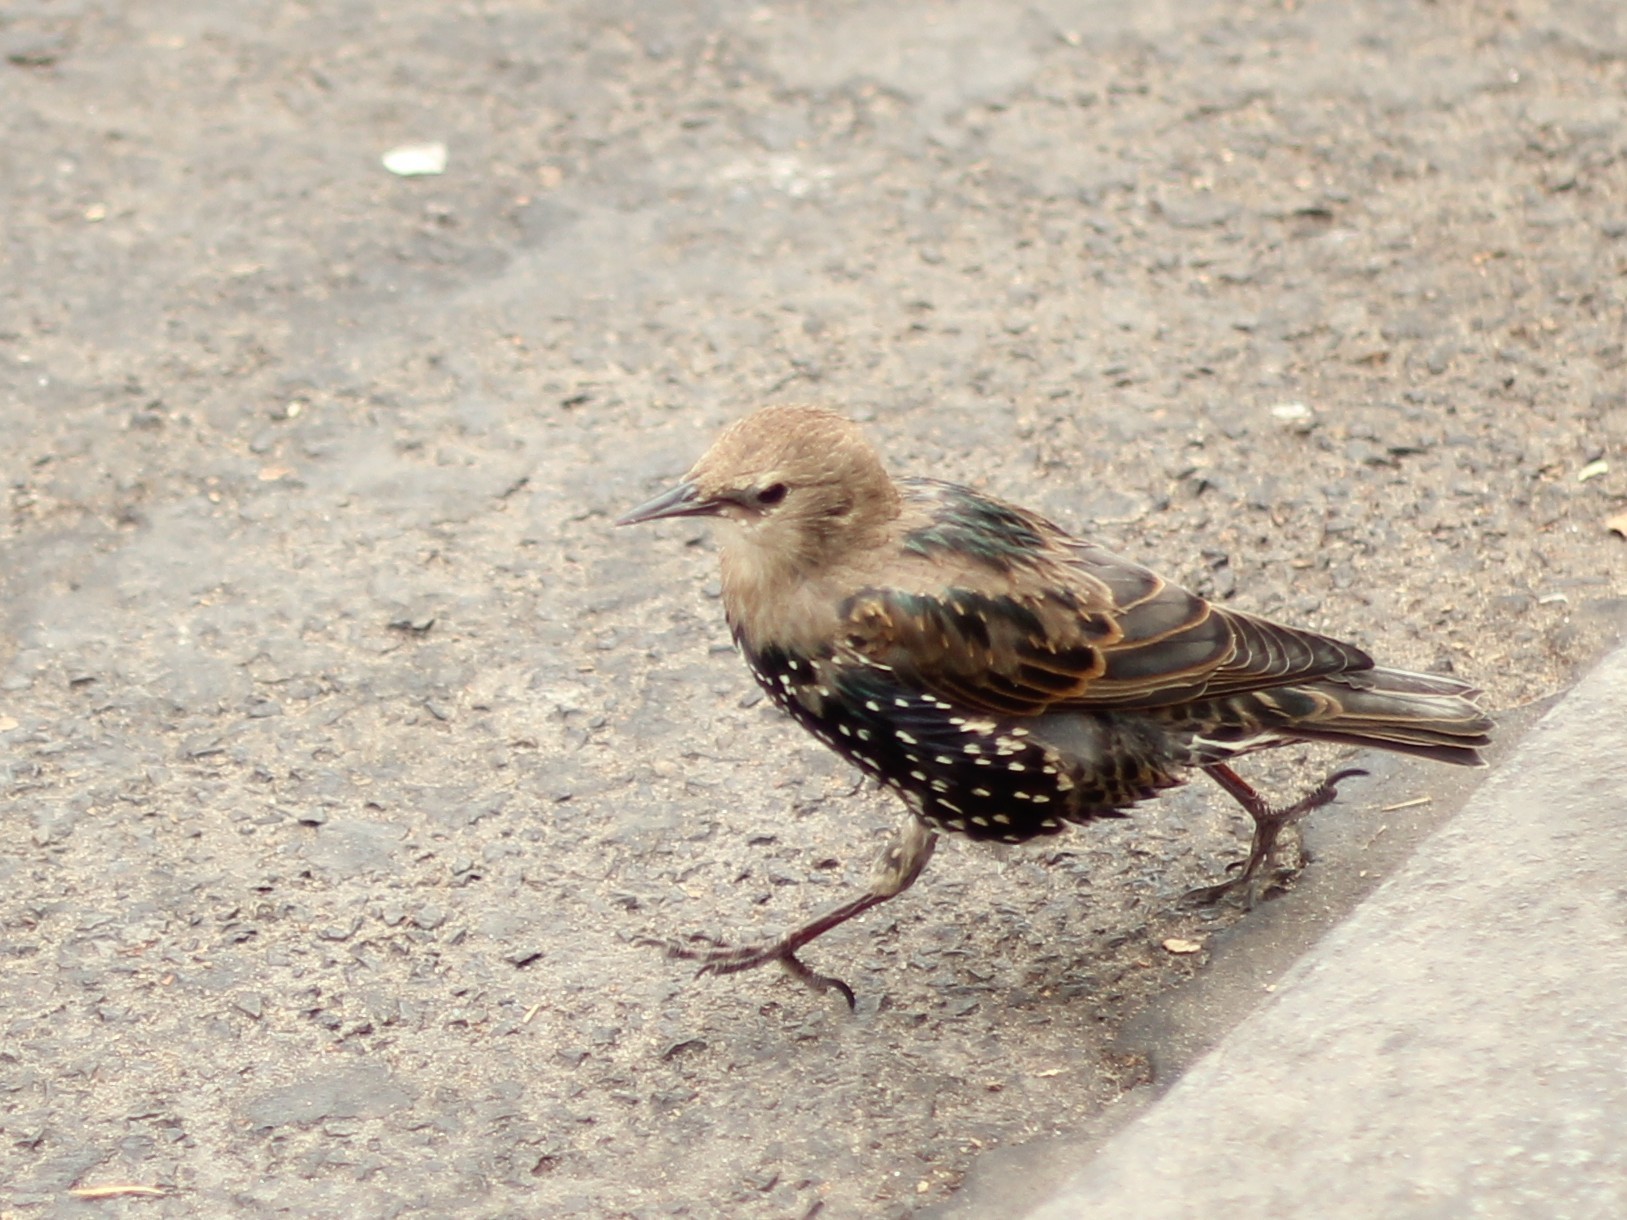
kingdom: Animalia
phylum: Chordata
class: Aves
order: Passeriformes
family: Sturnidae
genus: Sturnus
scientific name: Sturnus vulgaris
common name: Common starling
